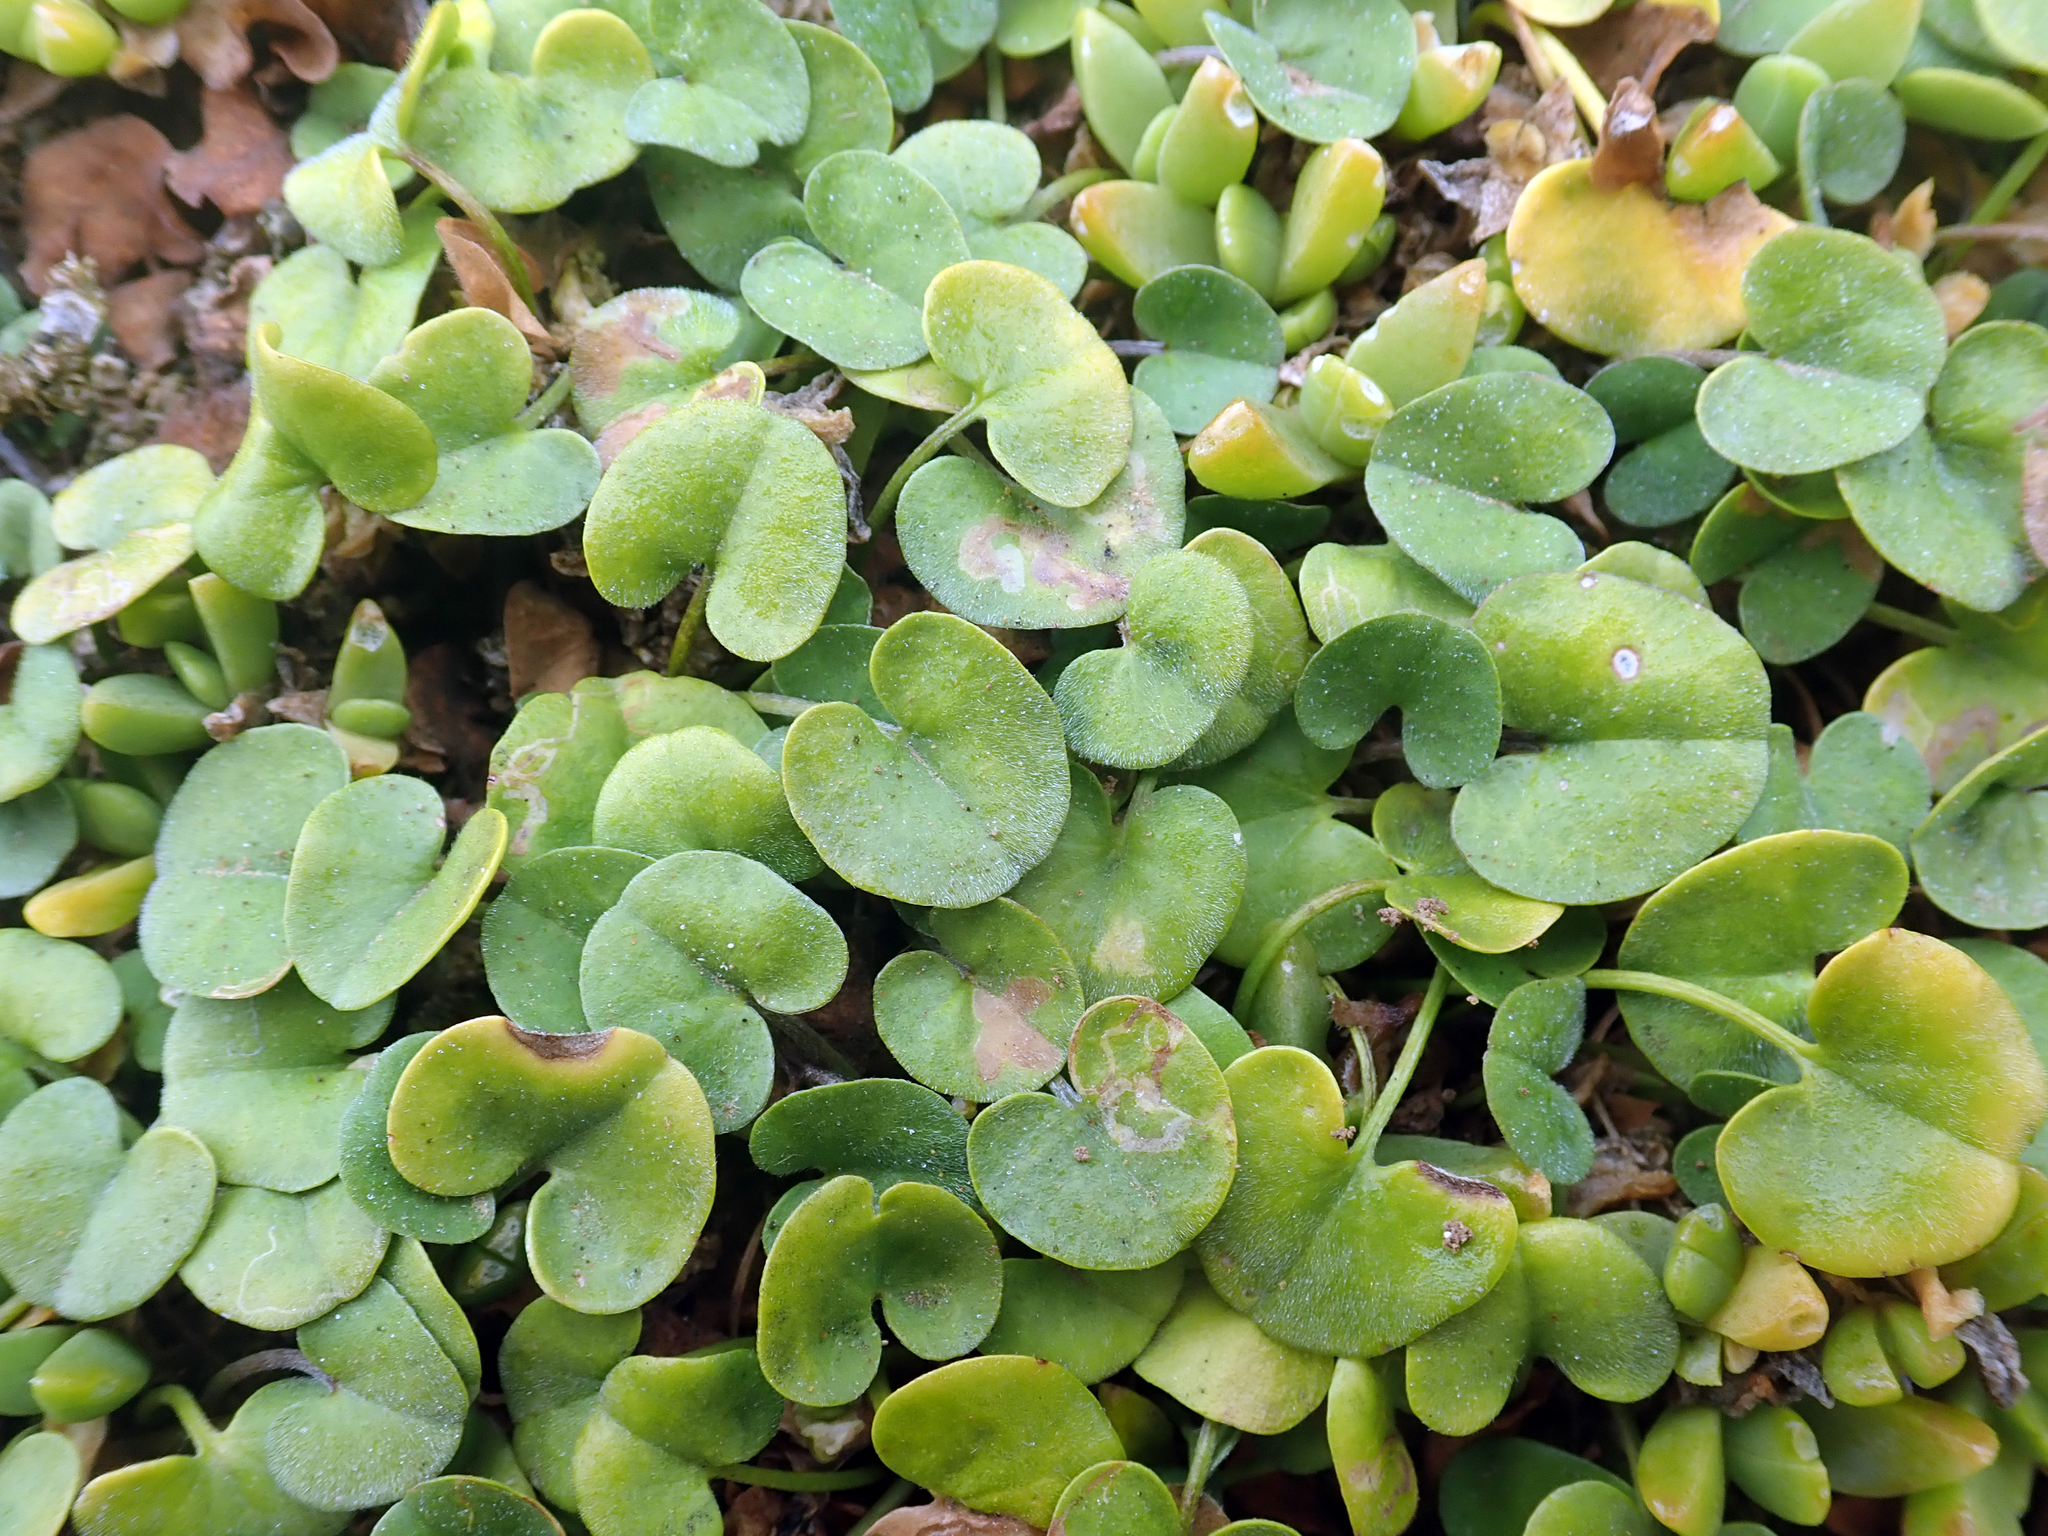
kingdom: Plantae
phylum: Tracheophyta
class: Magnoliopsida
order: Solanales
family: Convolvulaceae
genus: Dichondra
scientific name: Dichondra brevifolia
